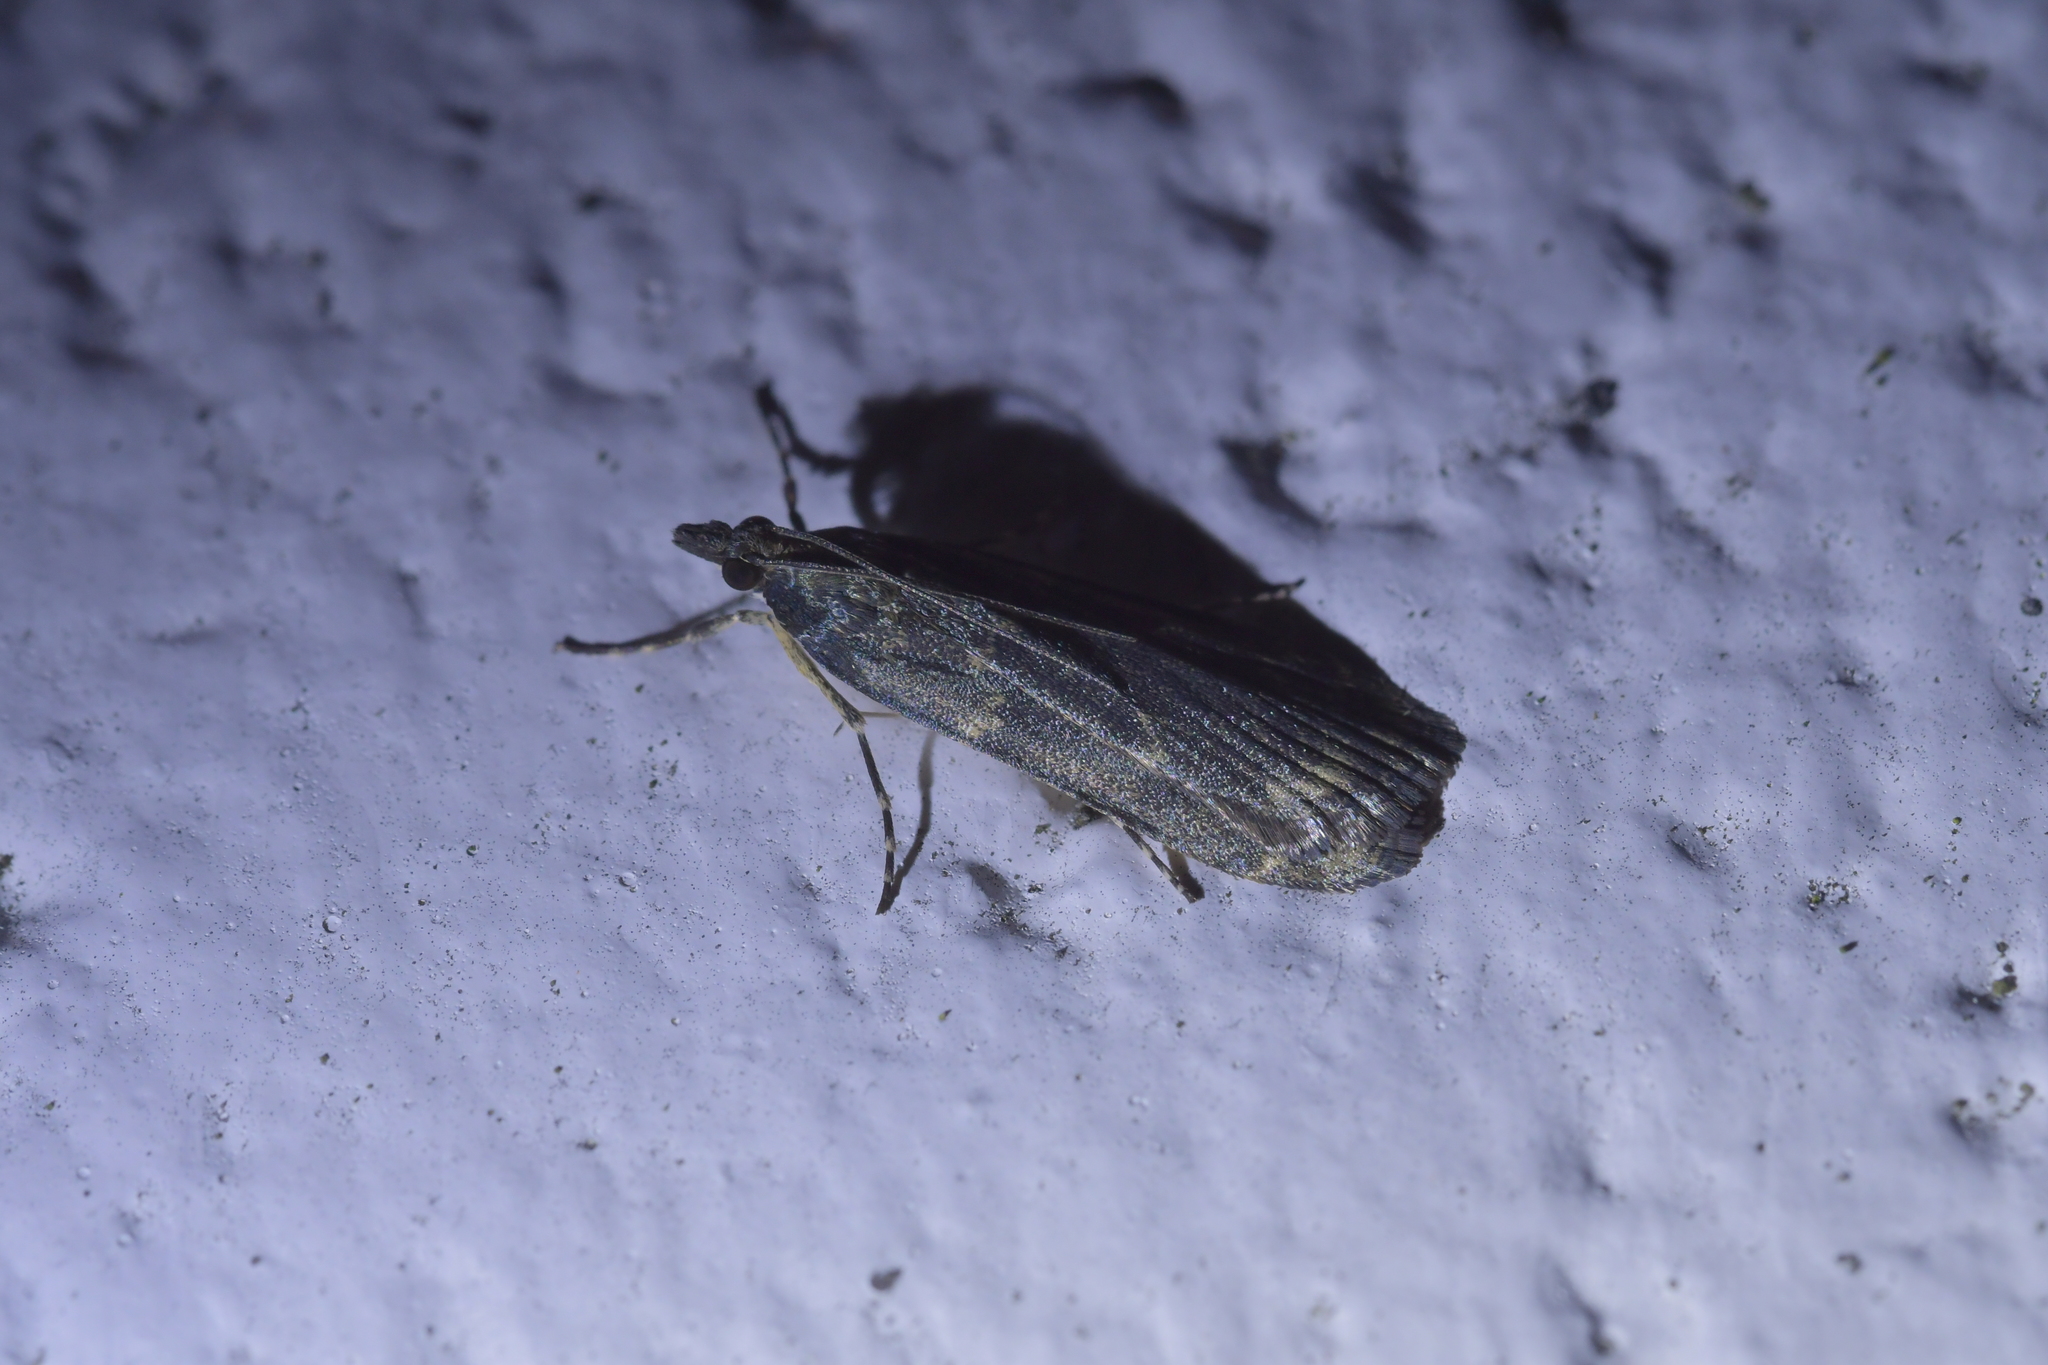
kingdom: Animalia
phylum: Arthropoda
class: Insecta
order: Lepidoptera
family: Crambidae
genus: Eudonia
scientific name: Eudonia cataxesta
